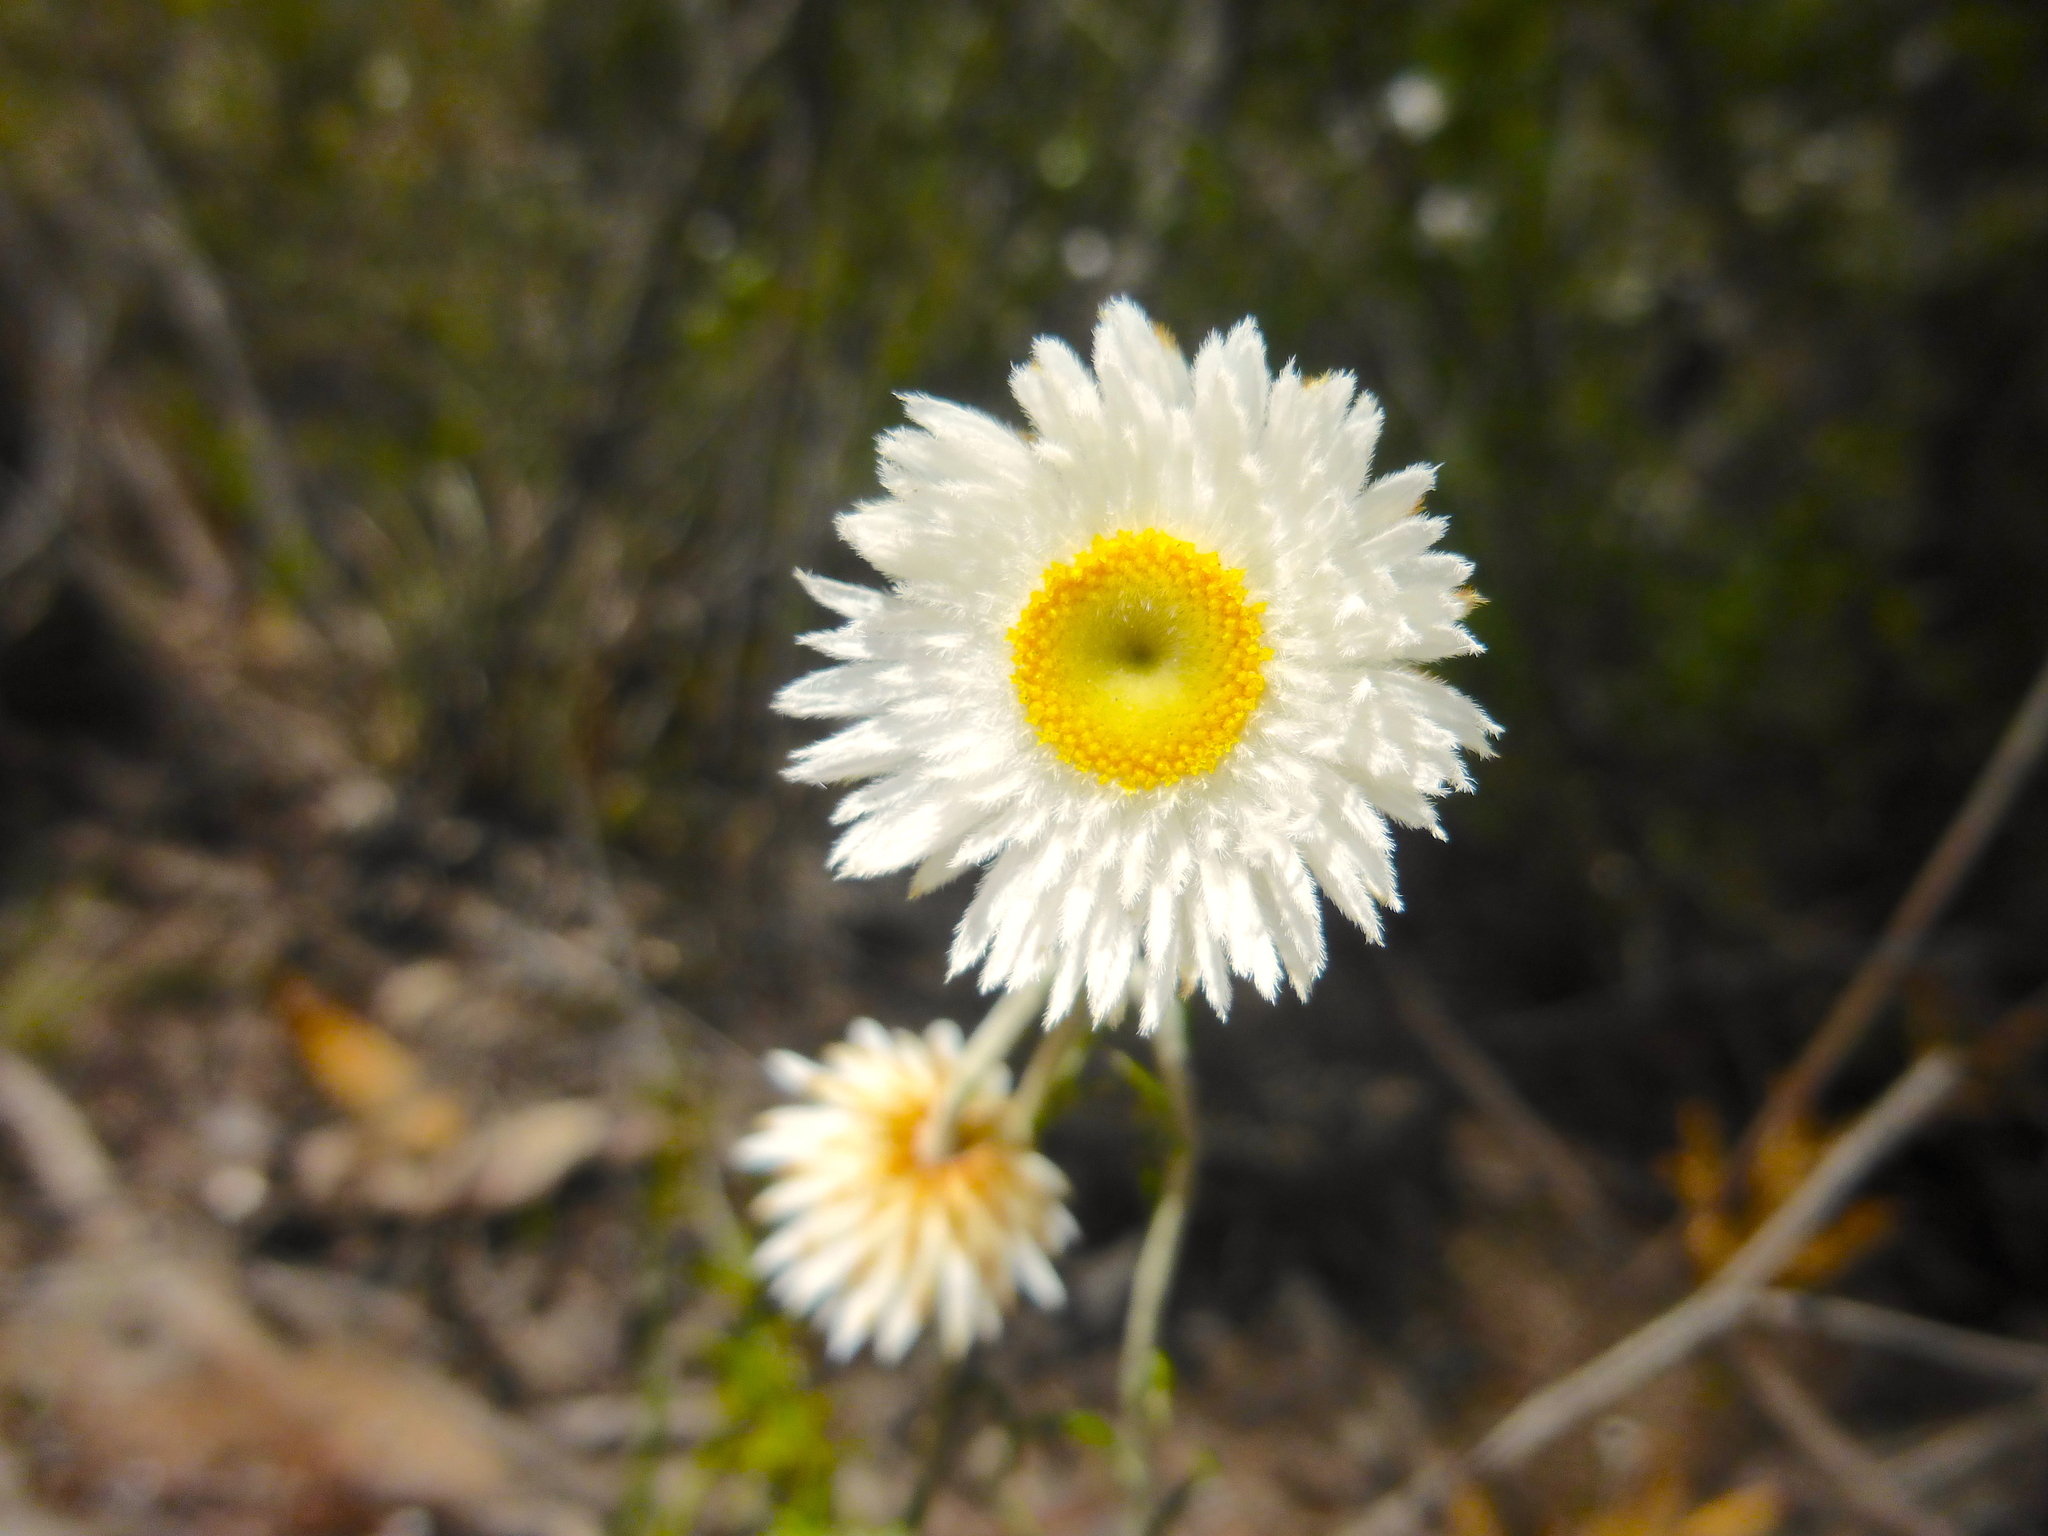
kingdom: Plantae
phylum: Tracheophyta
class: Magnoliopsida
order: Asterales
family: Asteraceae
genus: Chrysocephalum
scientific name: Chrysocephalum baxteri
